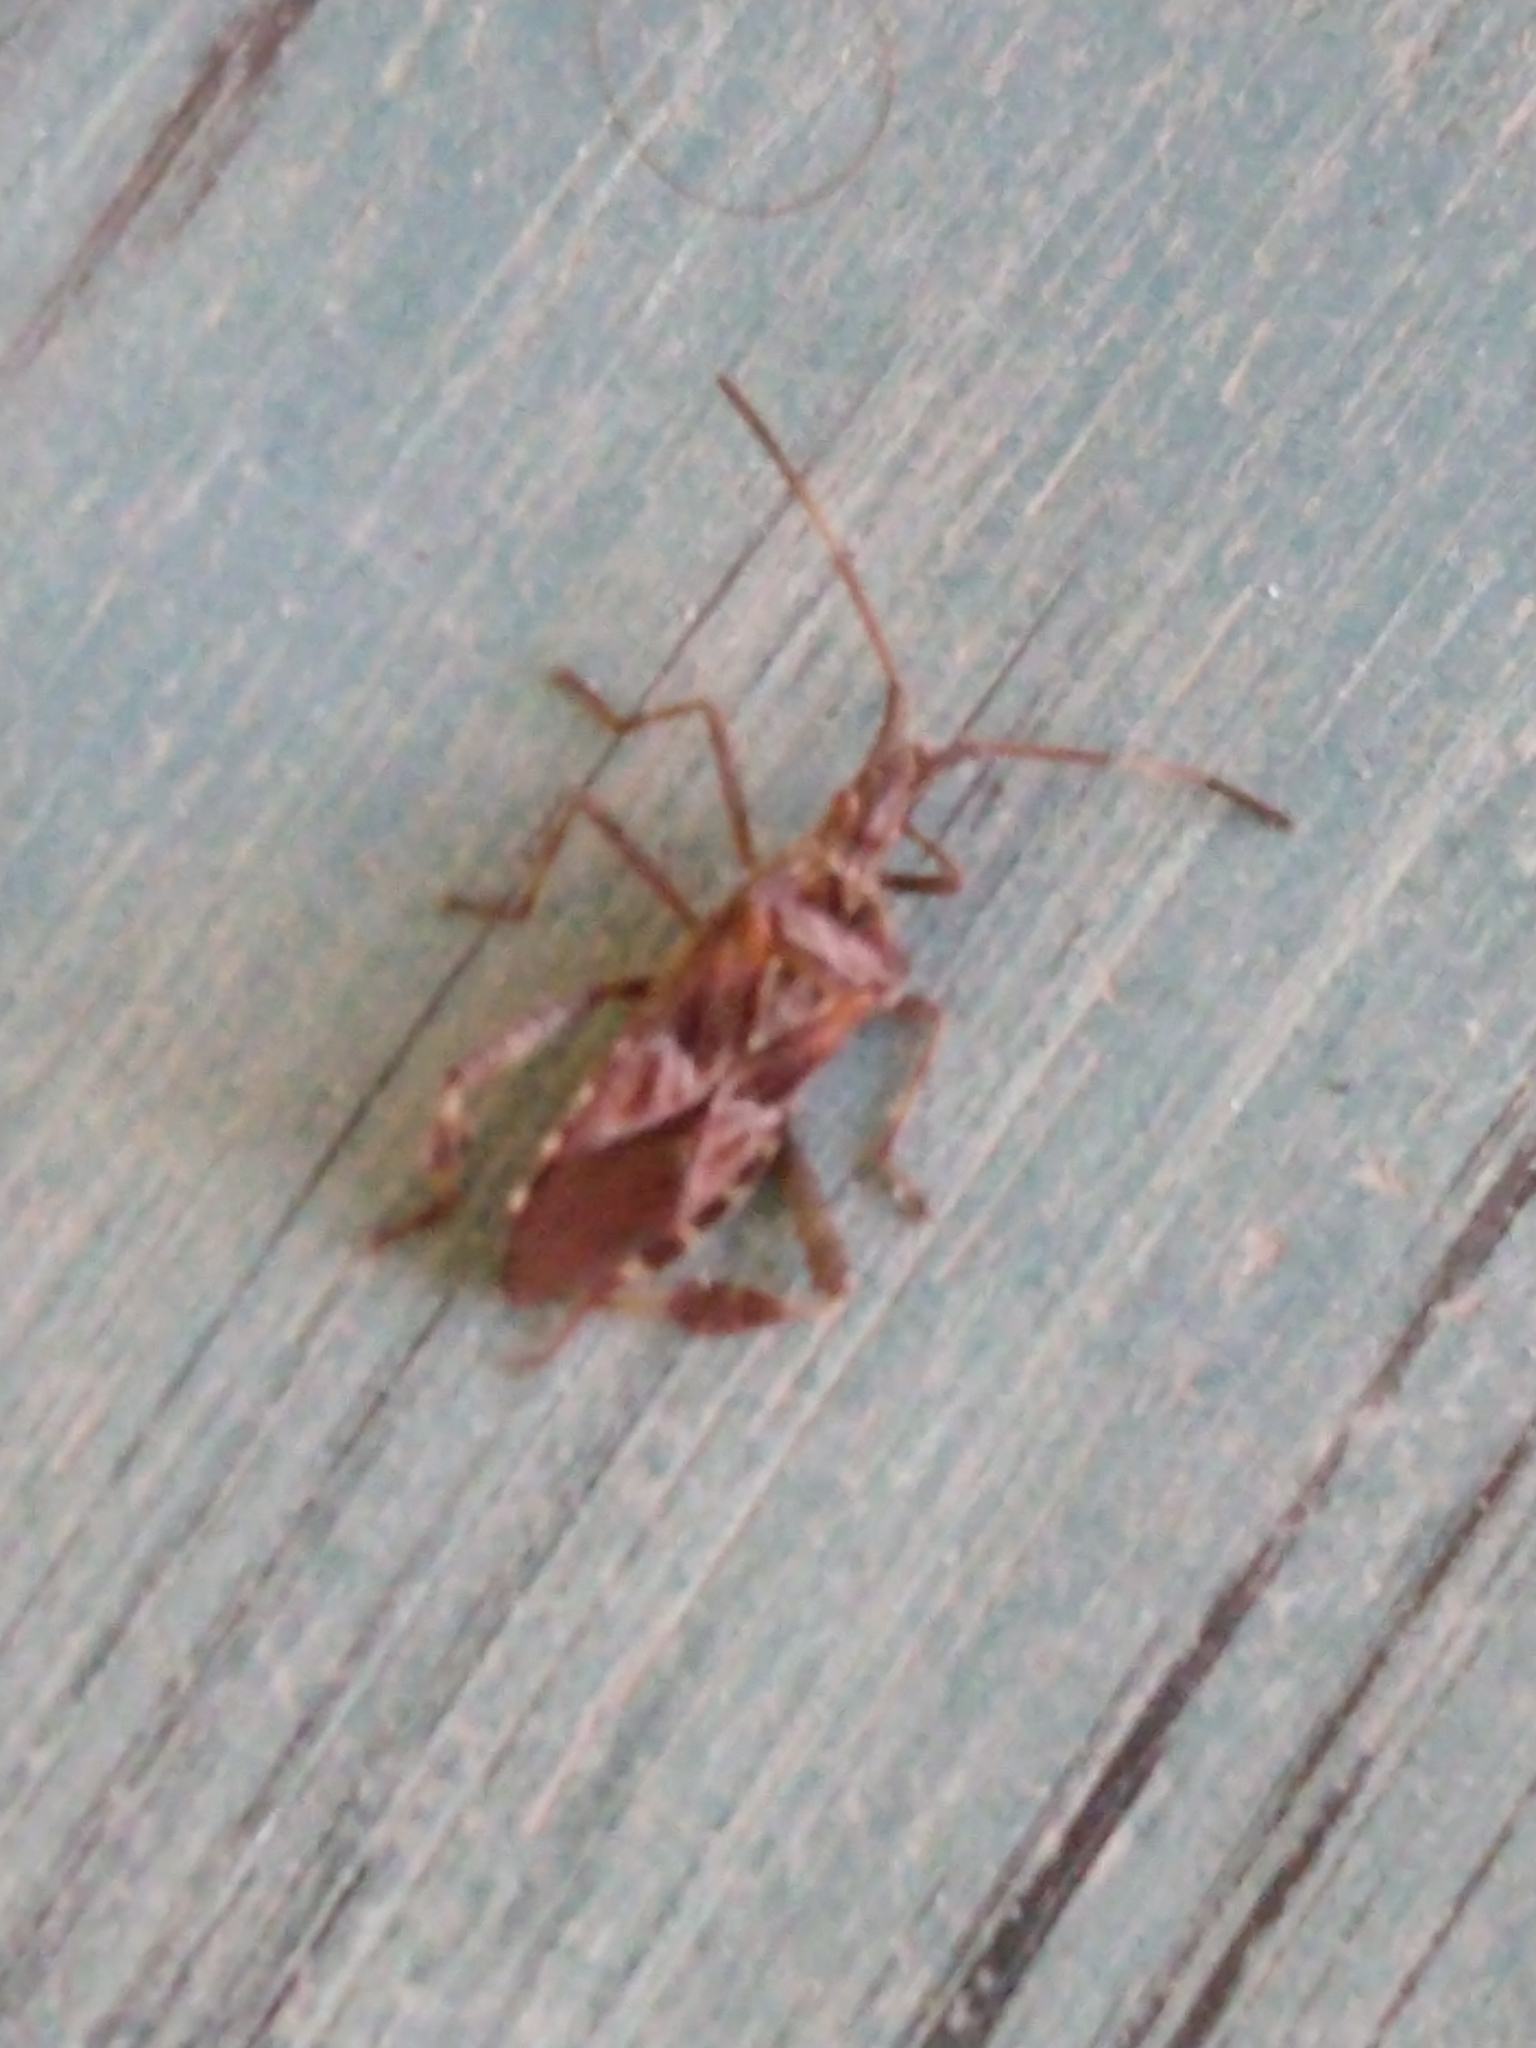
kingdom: Animalia
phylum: Arthropoda
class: Insecta
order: Hemiptera
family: Coreidae
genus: Leptoglossus
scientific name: Leptoglossus occidentalis
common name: Western conifer-seed bug
